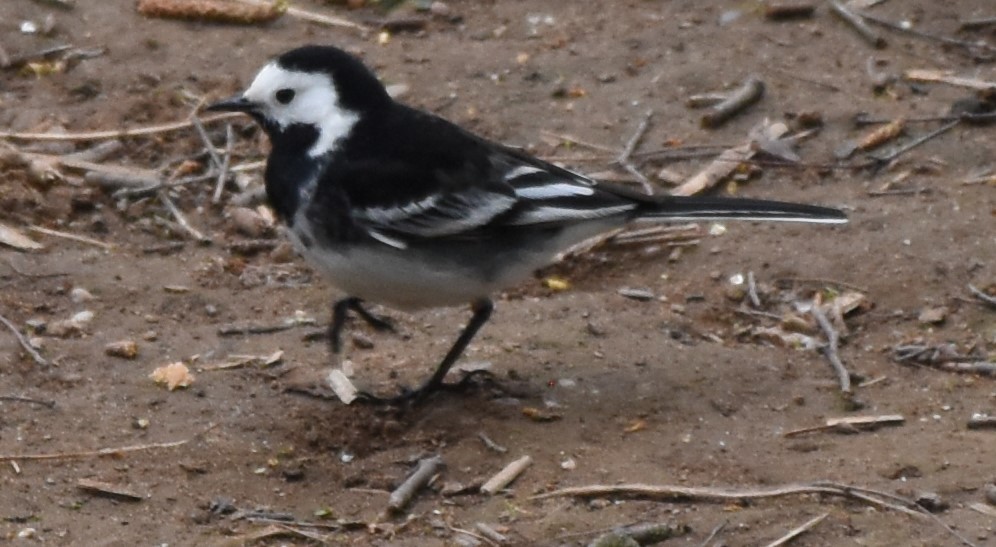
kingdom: Animalia
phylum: Chordata
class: Aves
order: Passeriformes
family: Motacillidae
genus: Motacilla
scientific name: Motacilla alba
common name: White wagtail
